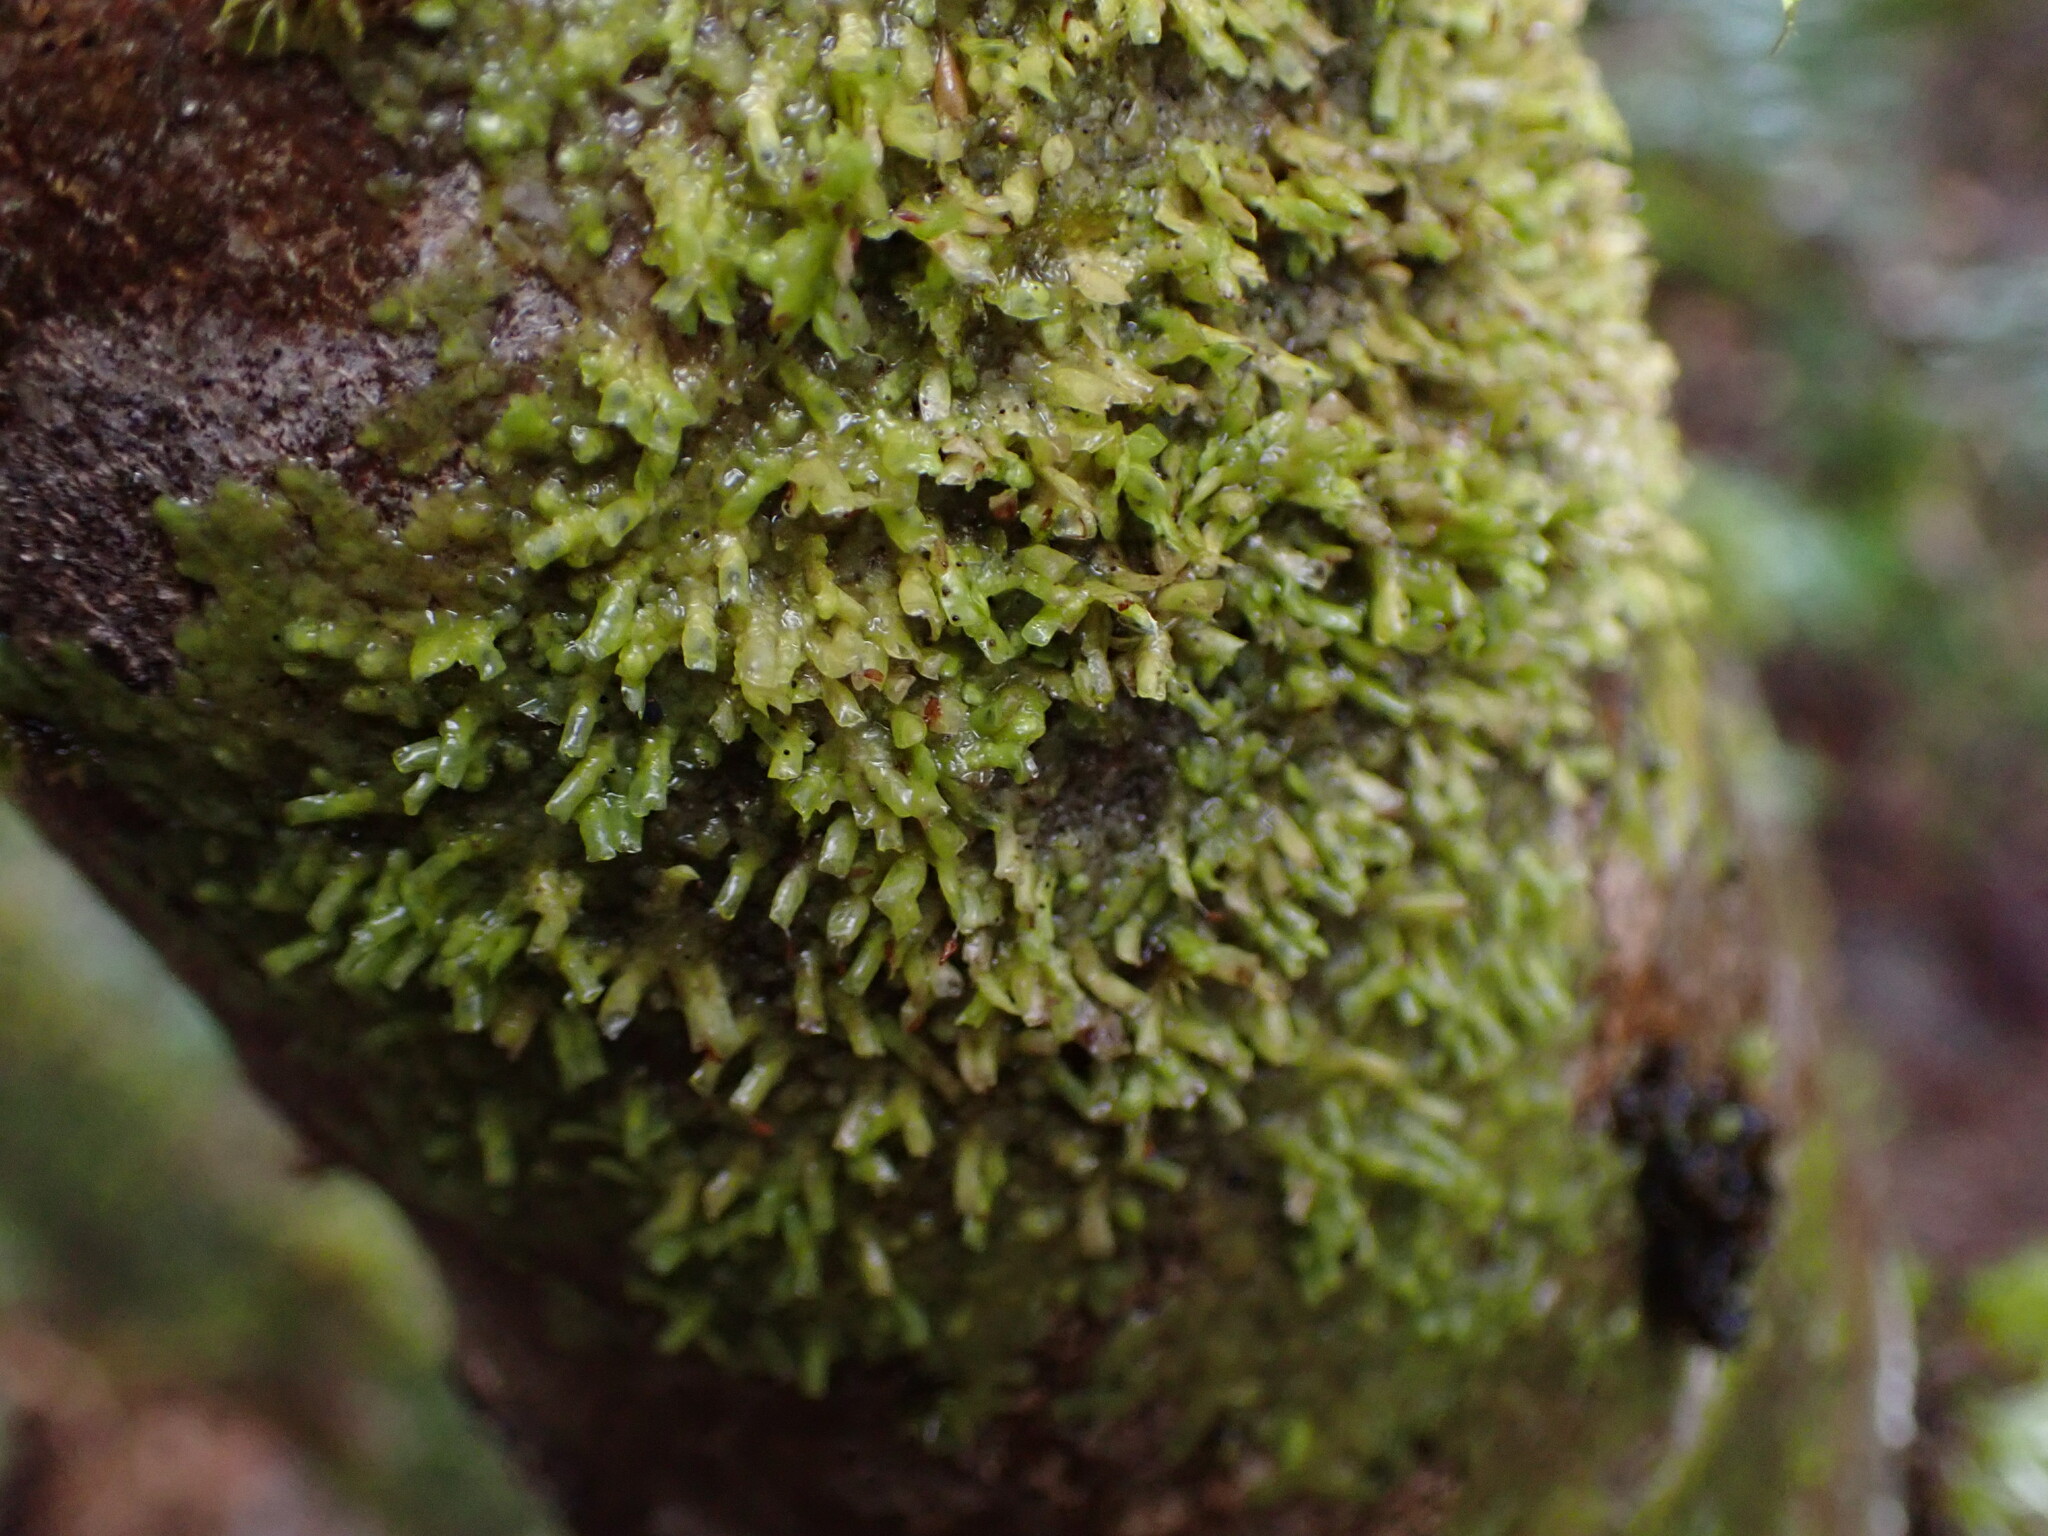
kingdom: Plantae
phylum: Marchantiophyta
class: Jungermanniopsida
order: Porellales
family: Radulaceae
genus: Radula
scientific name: Radula complanata
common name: Flat-leaved scalewort
